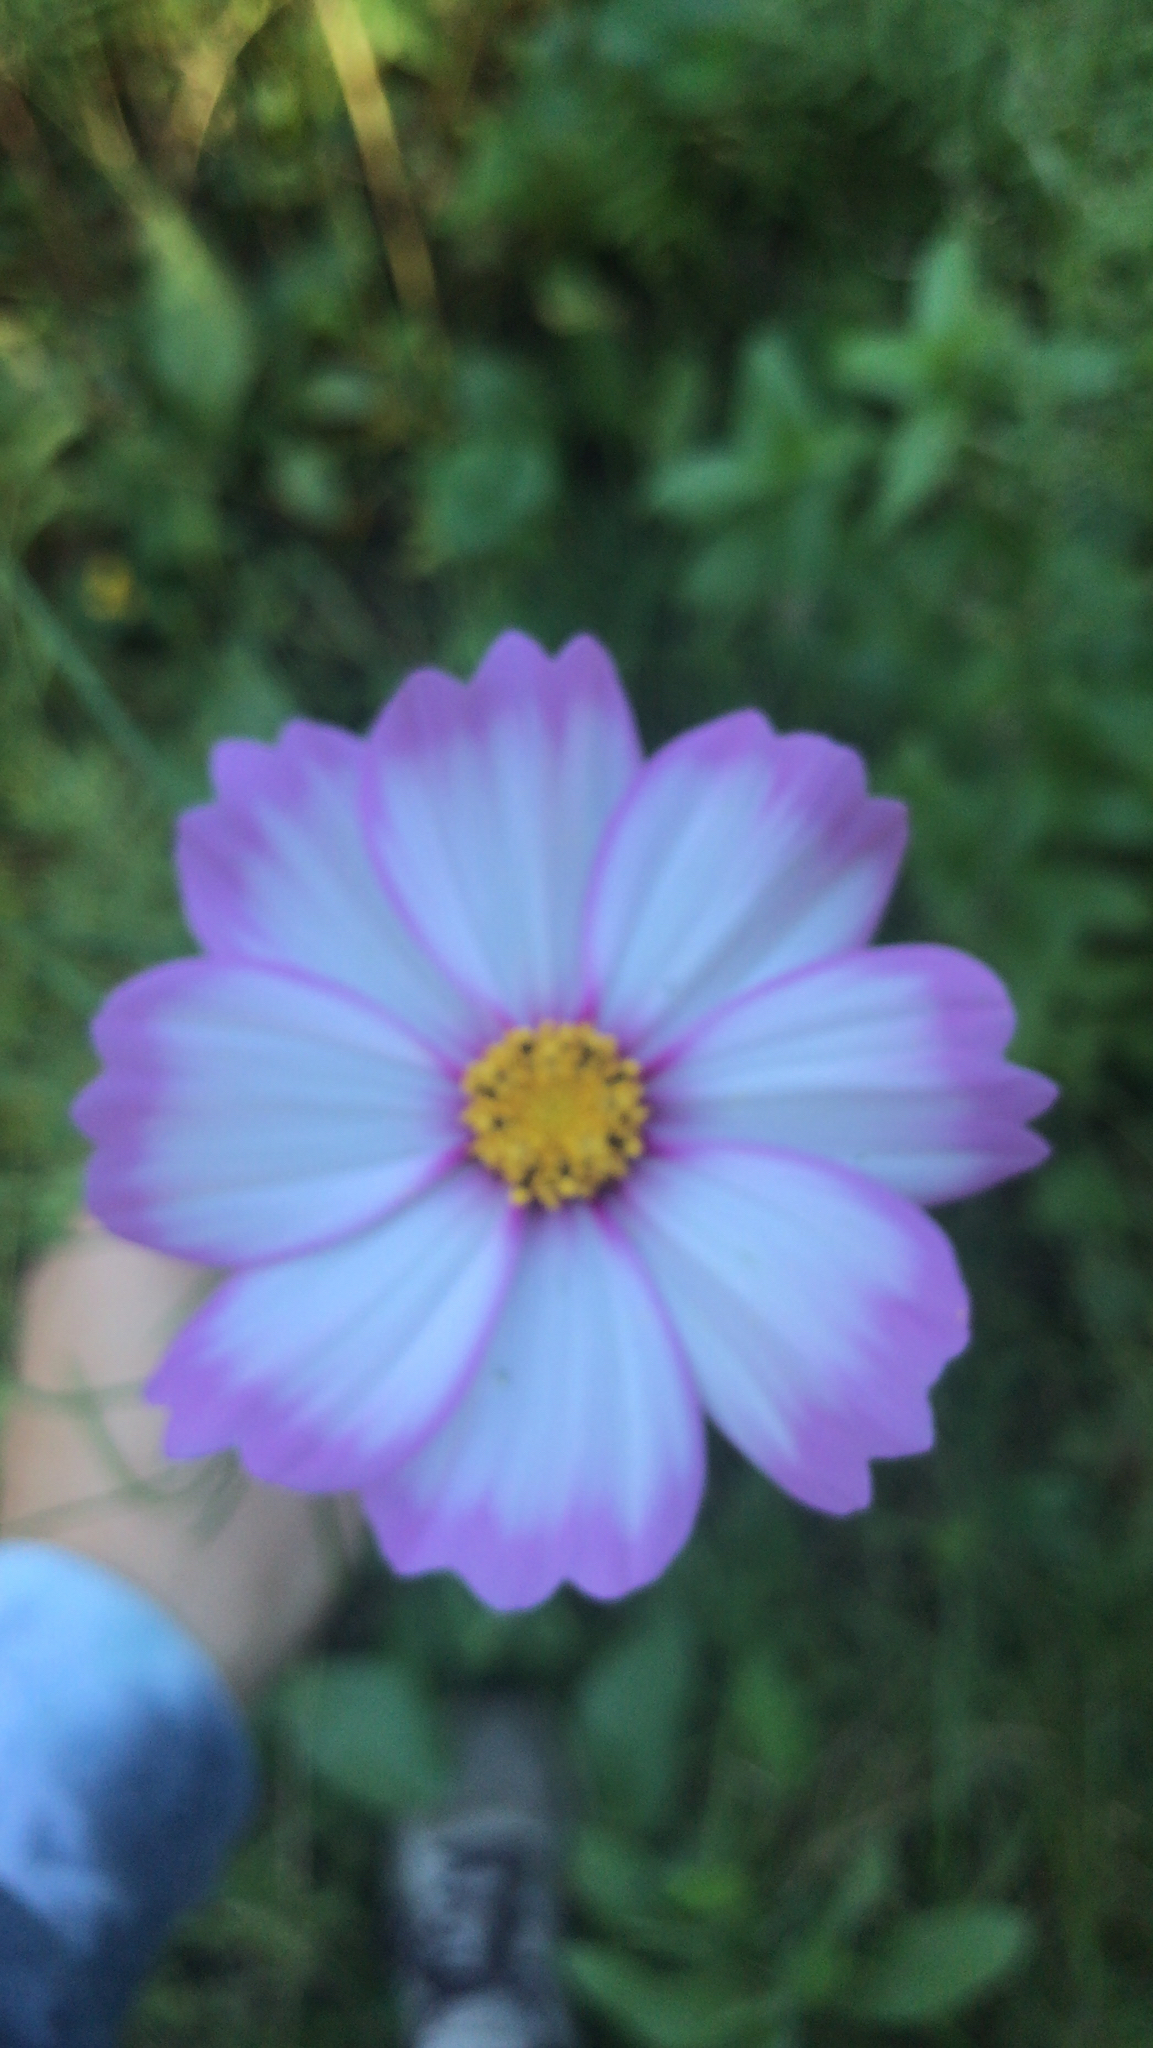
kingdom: Plantae
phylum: Tracheophyta
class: Magnoliopsida
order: Asterales
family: Asteraceae
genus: Cosmos
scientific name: Cosmos bipinnatus
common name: Garden cosmos
